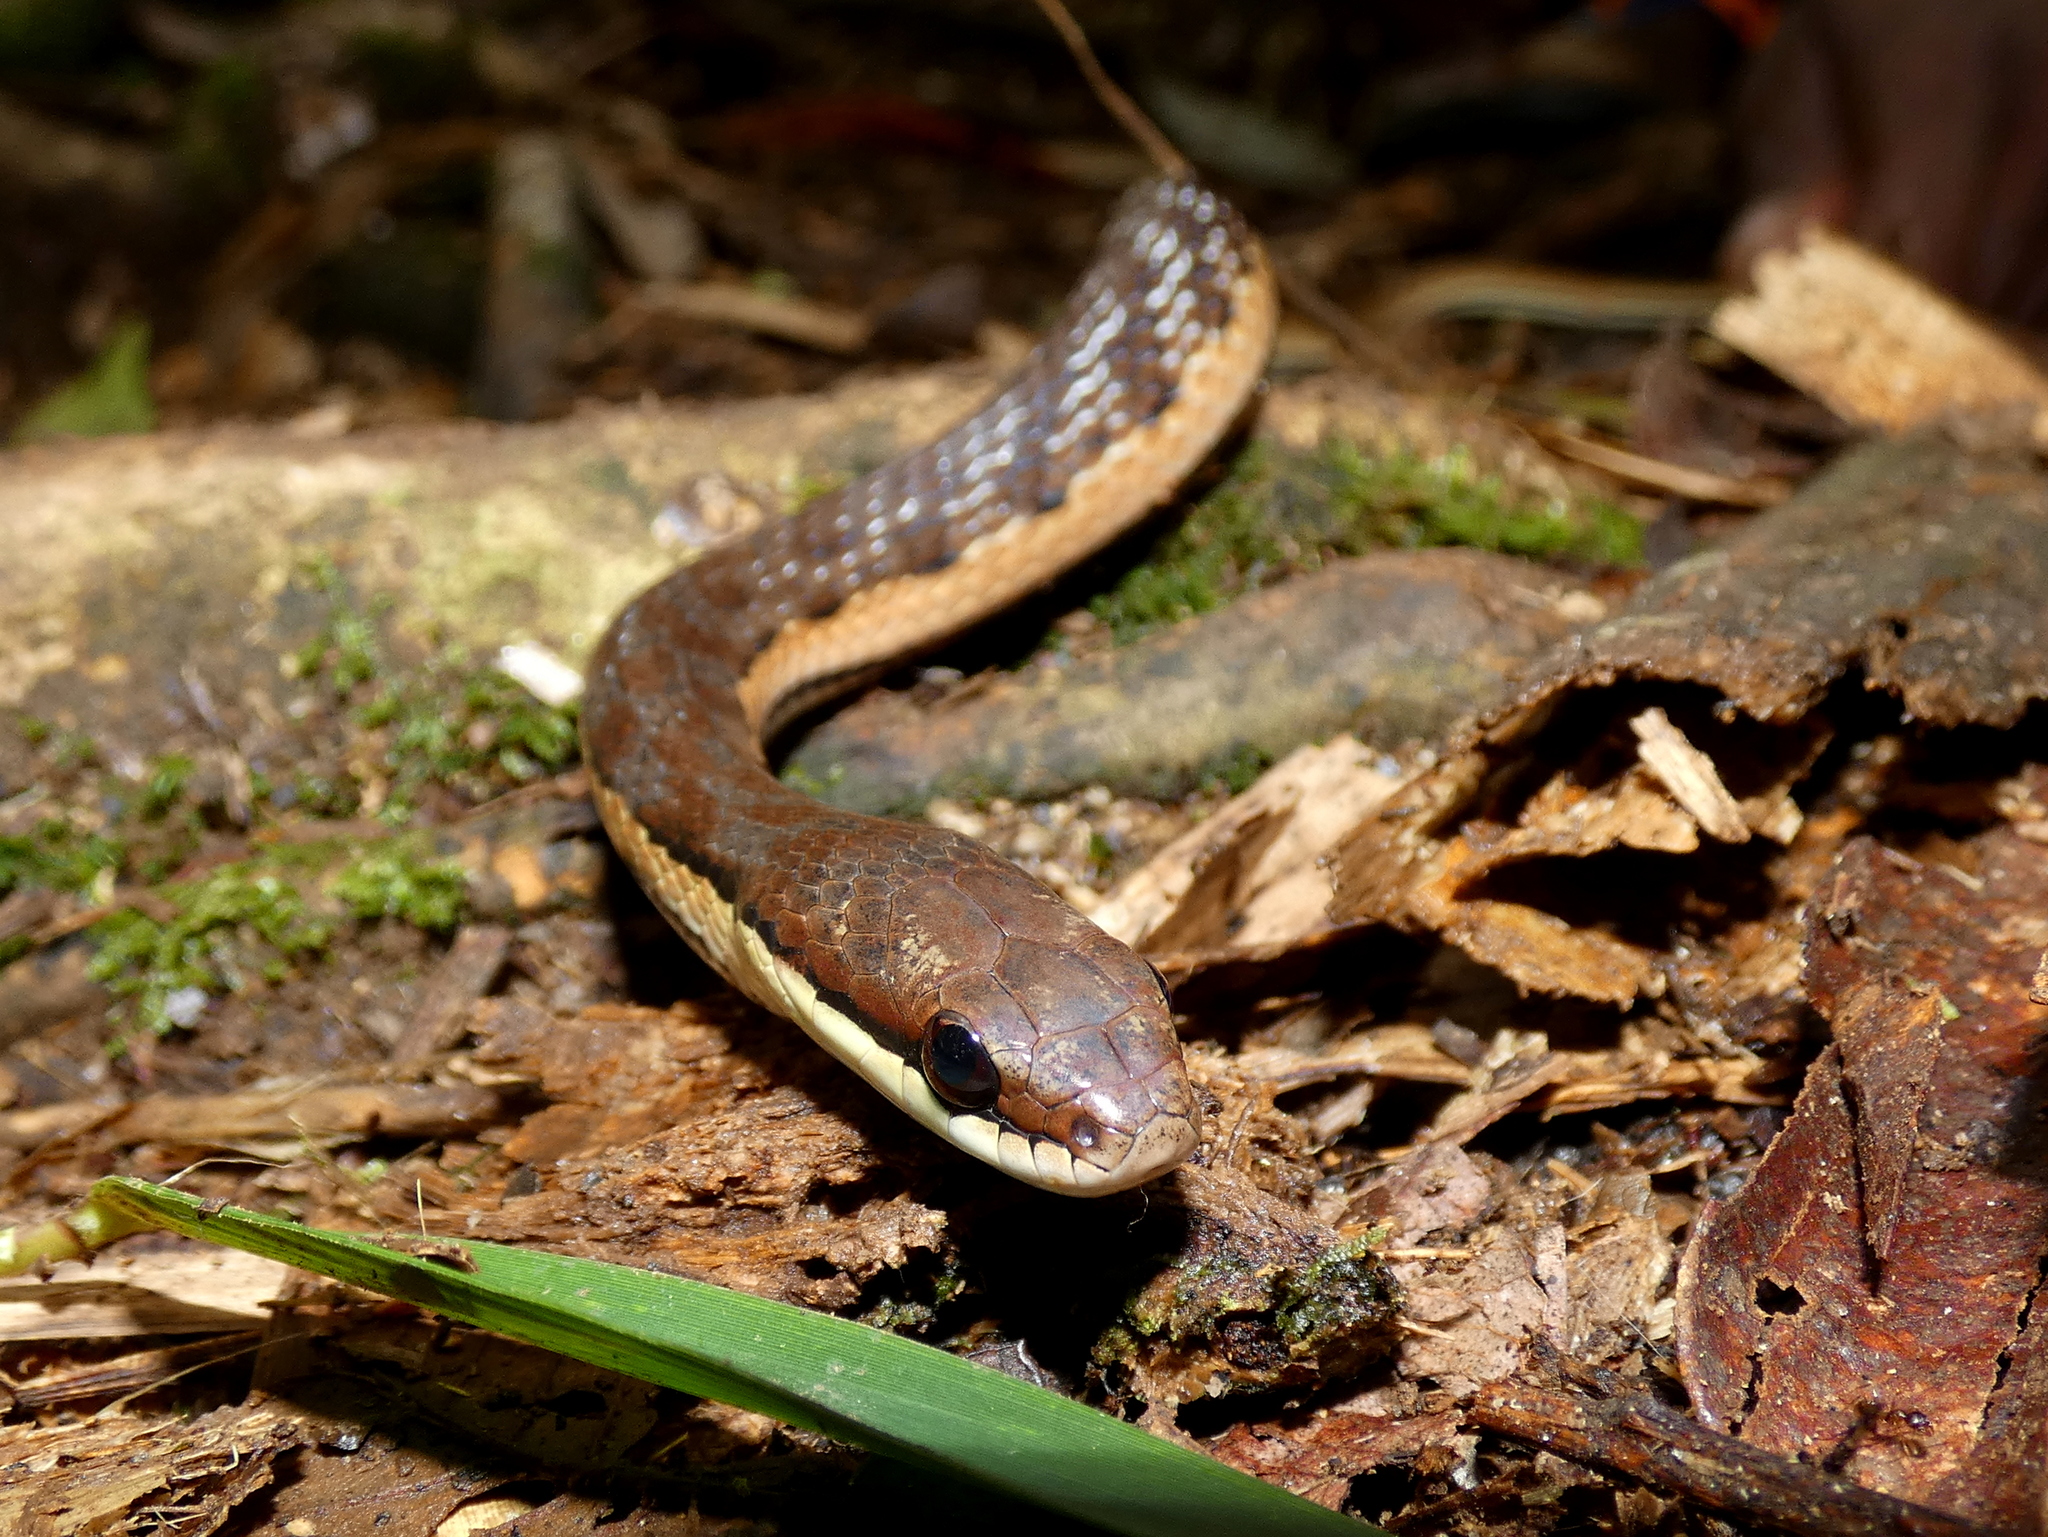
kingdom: Animalia
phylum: Chordata
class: Squamata
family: Pseudoxyrhophiidae
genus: Liopholidophis
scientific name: Liopholidophis dolicocercus
